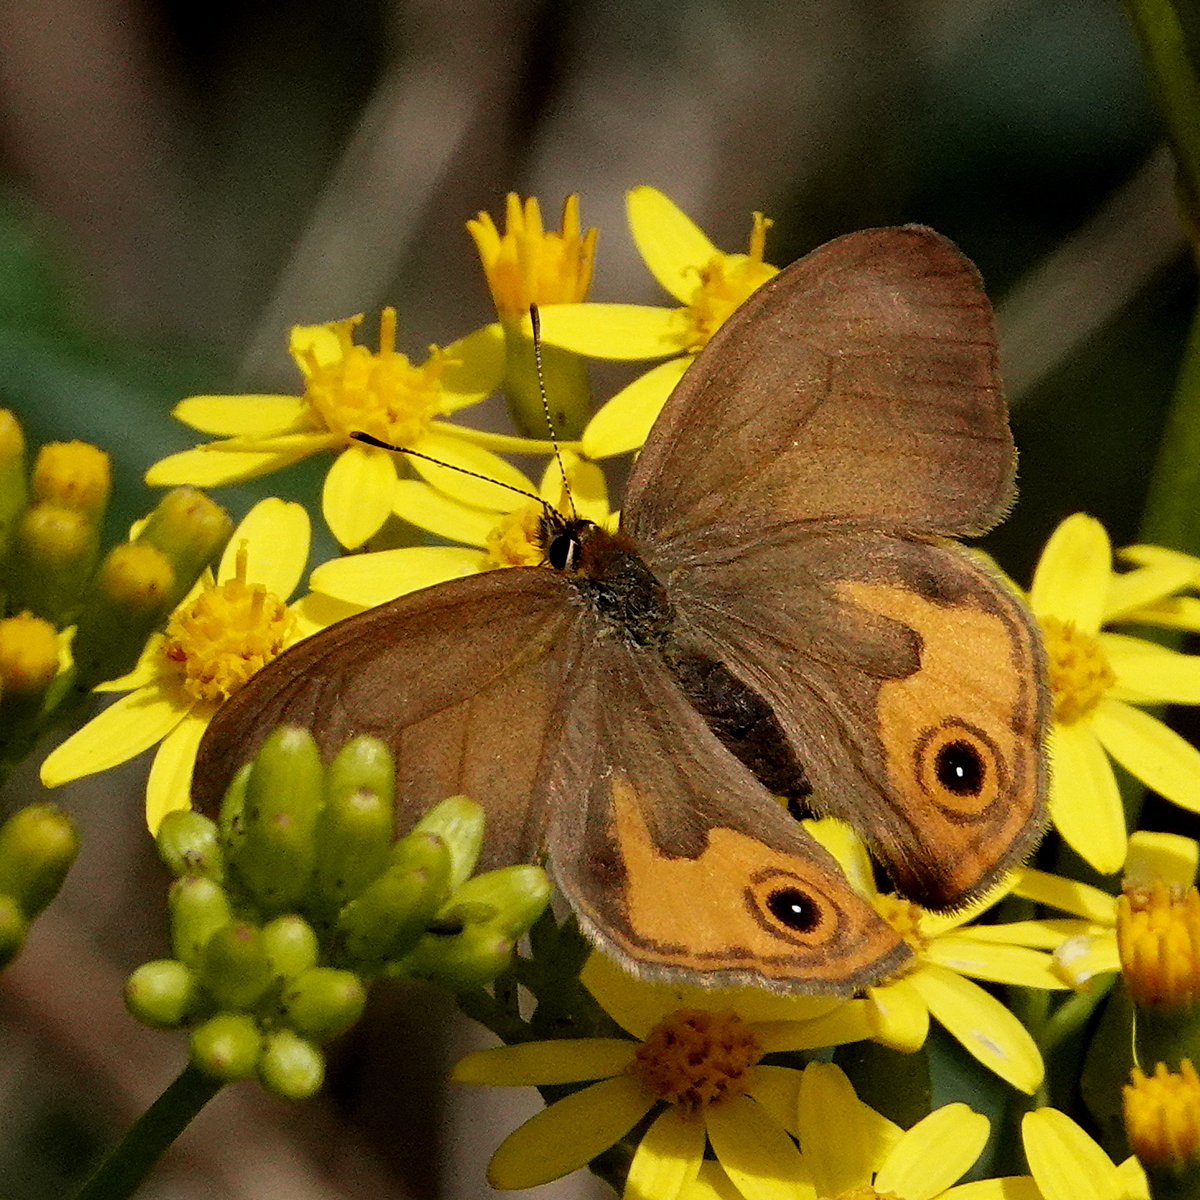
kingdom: Animalia
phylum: Arthropoda
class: Insecta
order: Lepidoptera
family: Nymphalidae
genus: Hypocysta
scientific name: Hypocysta metirius
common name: Brown ringlet
